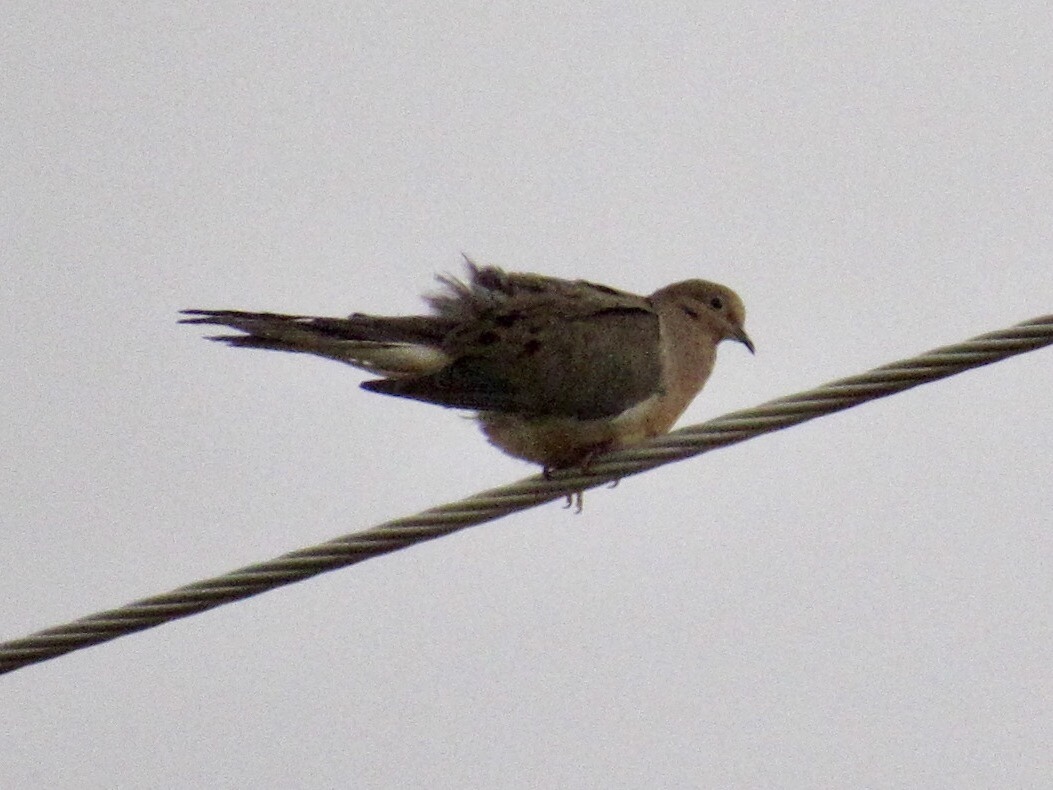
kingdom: Animalia
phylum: Chordata
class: Aves
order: Columbiformes
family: Columbidae
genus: Zenaida
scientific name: Zenaida macroura
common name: Mourning dove
